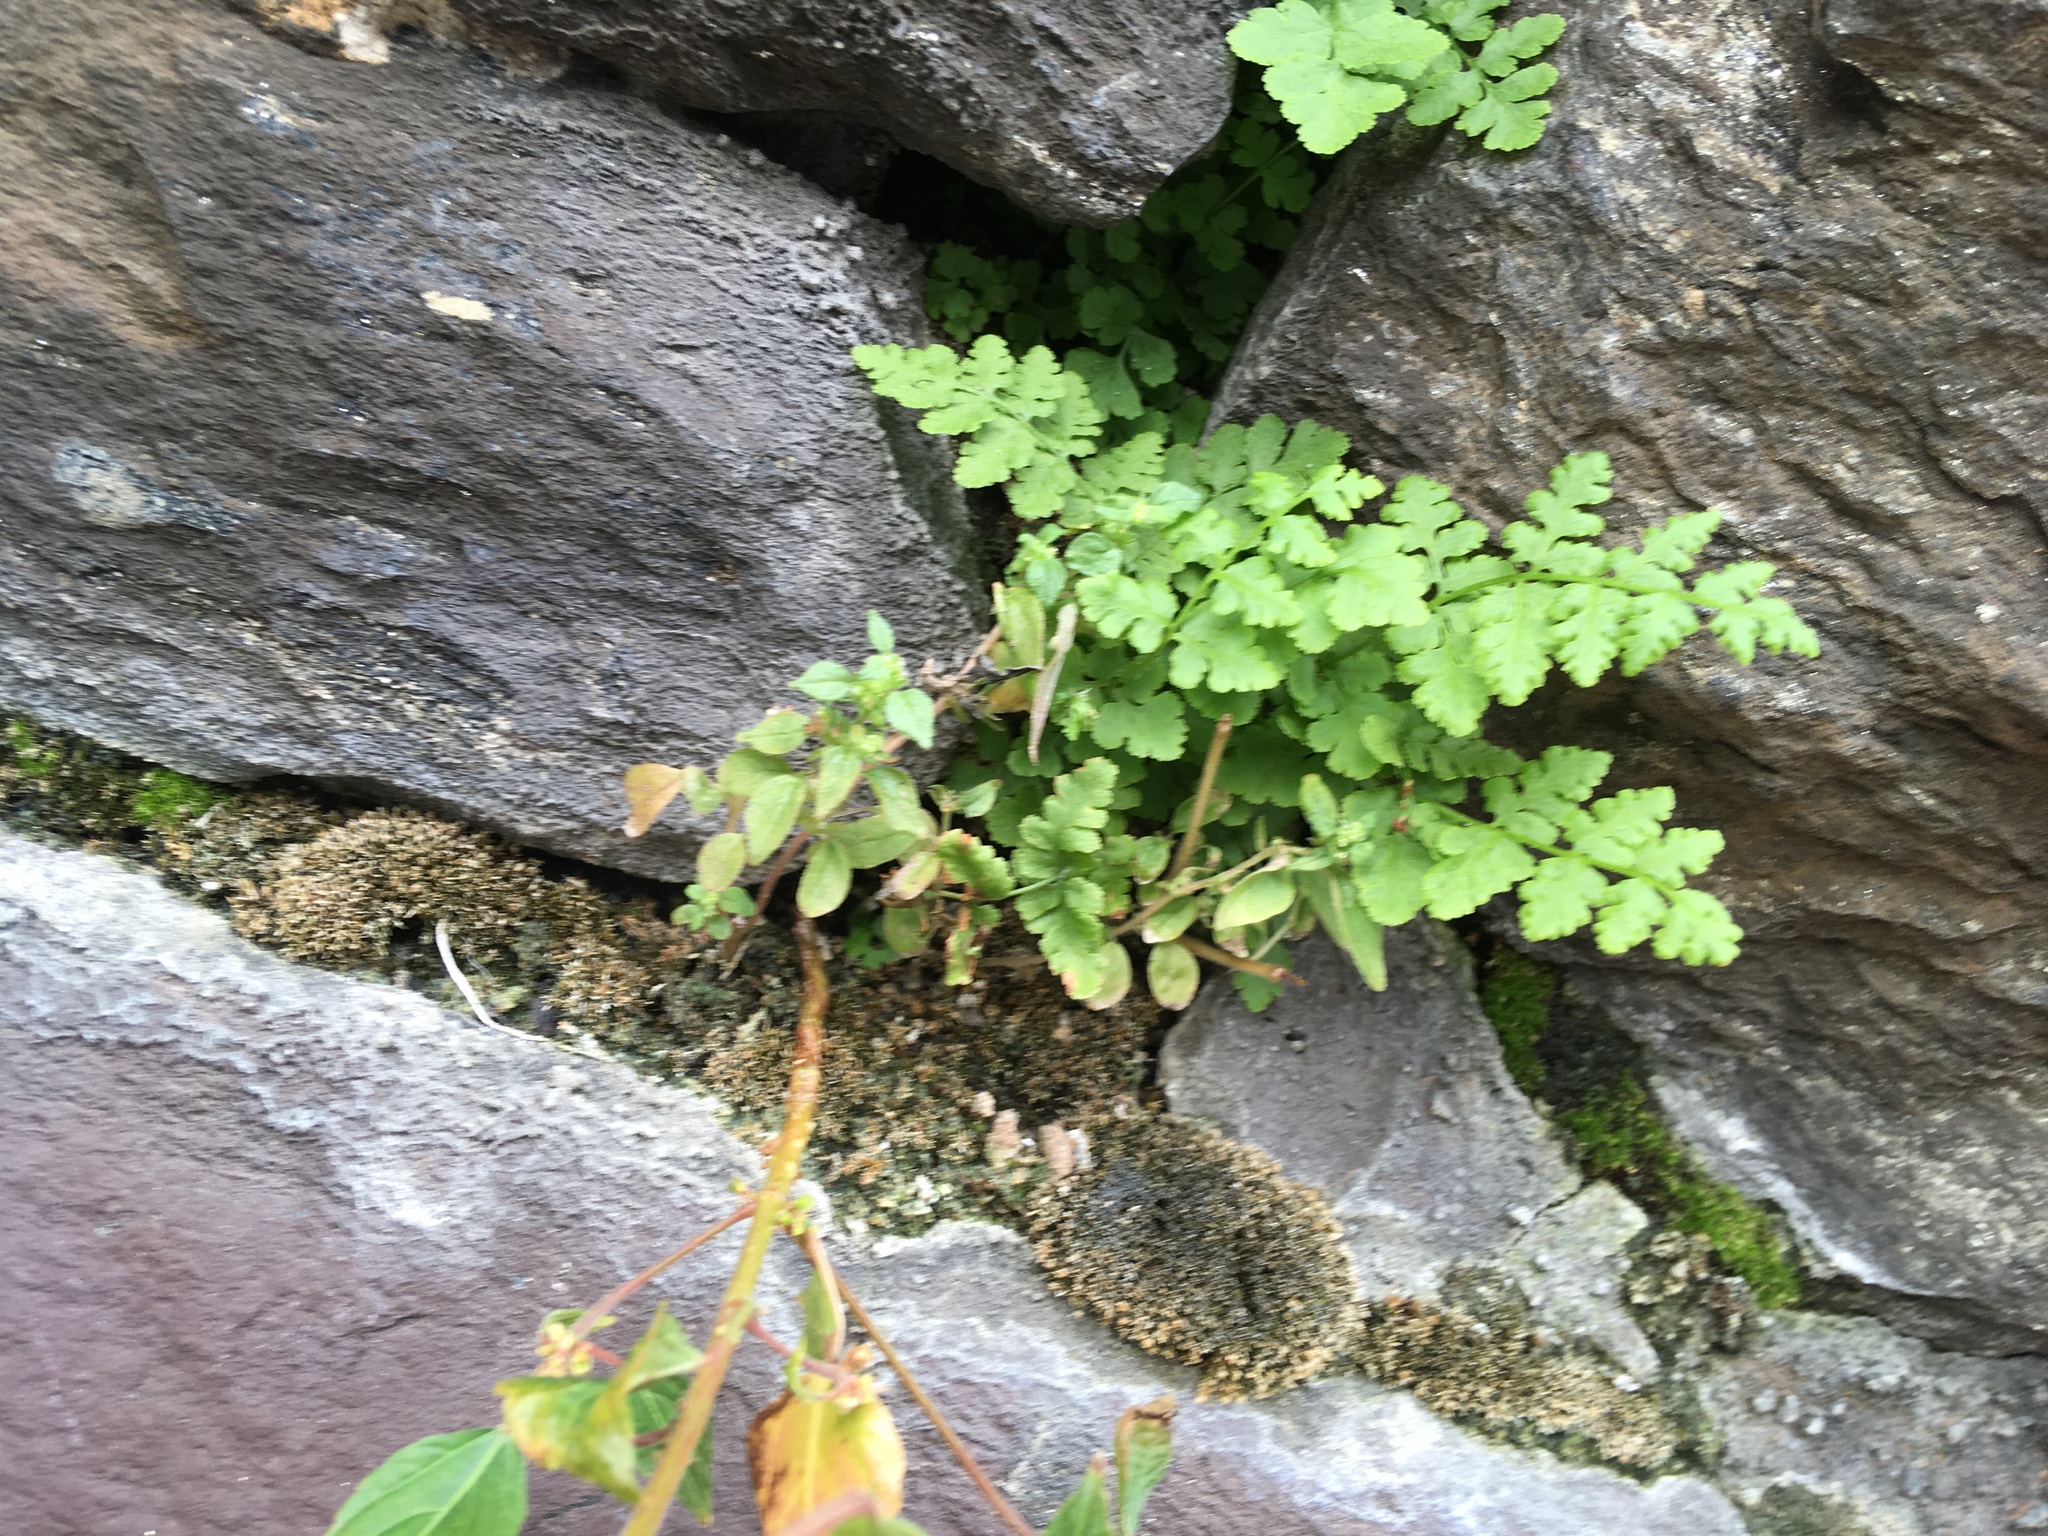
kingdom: Plantae
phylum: Tracheophyta
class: Polypodiopsida
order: Polypodiales
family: Woodsiaceae
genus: Physematium
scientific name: Physematium obtusum
